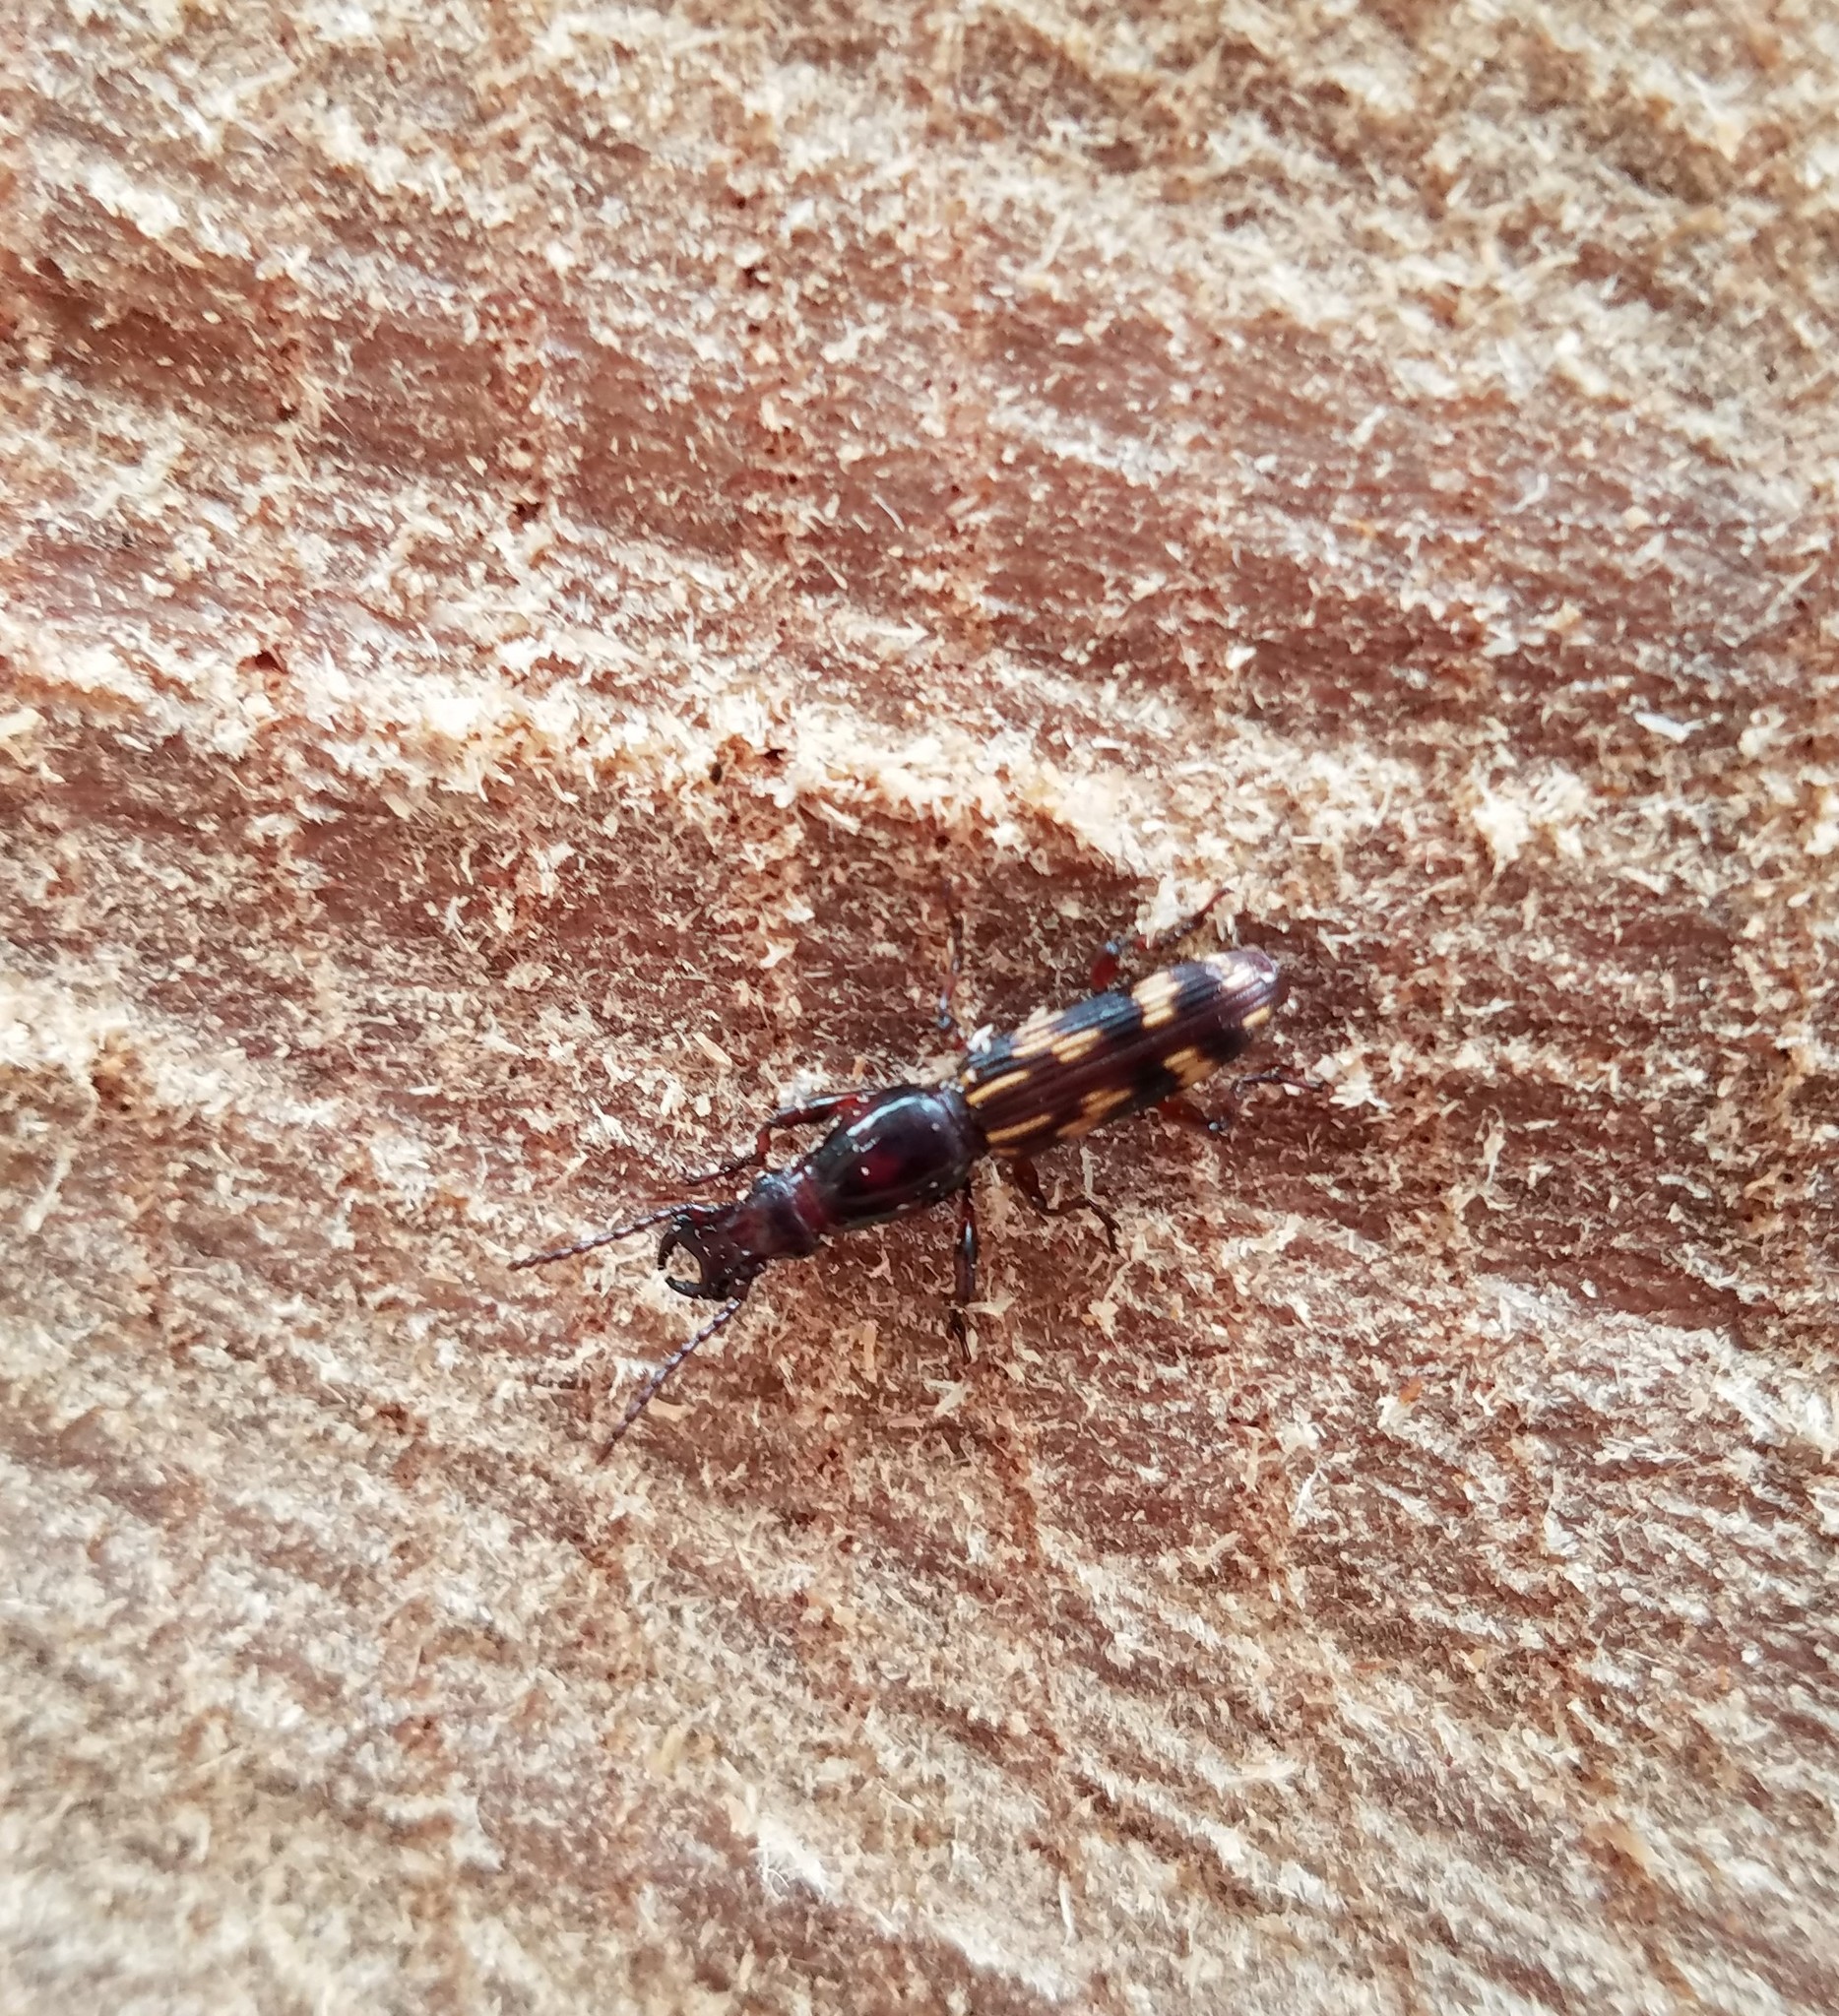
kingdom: Animalia
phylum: Arthropoda
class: Insecta
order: Coleoptera
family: Brentidae
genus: Arrenodes
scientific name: Arrenodes minutus
